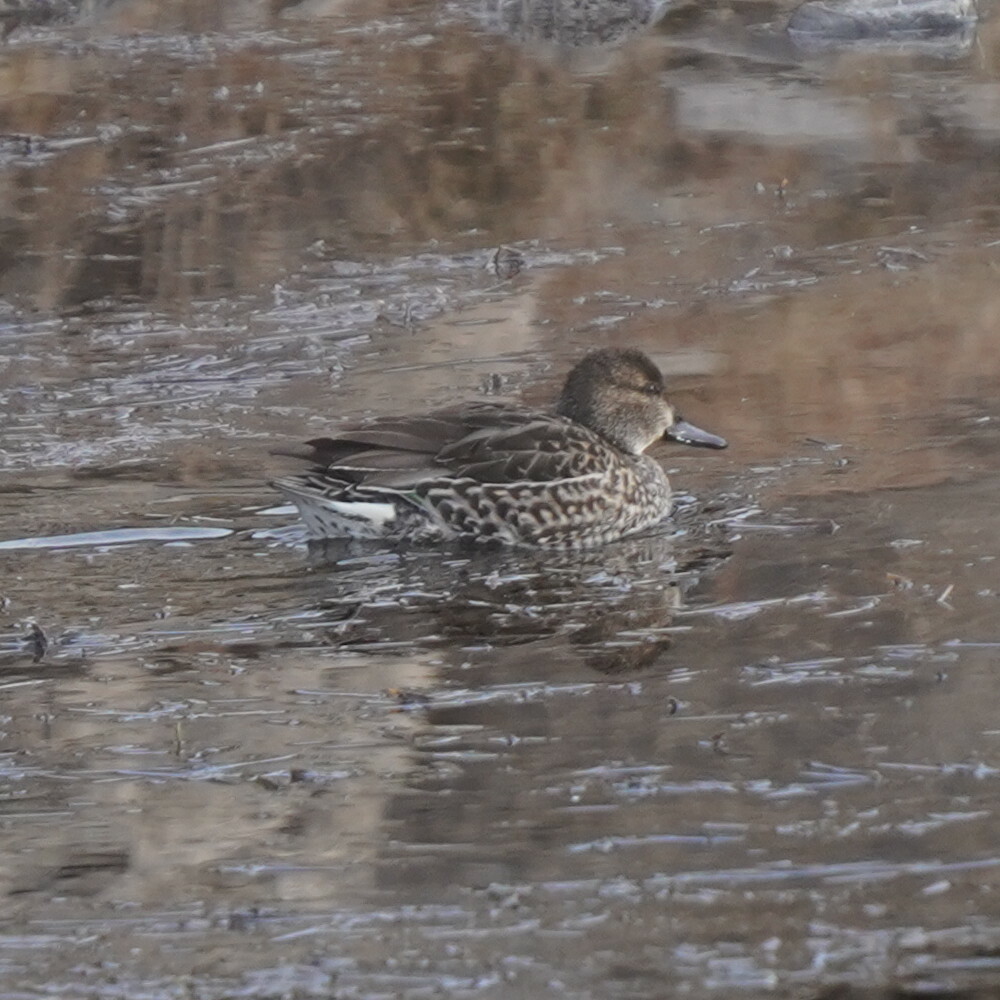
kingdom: Animalia
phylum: Chordata
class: Aves
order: Anseriformes
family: Anatidae
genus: Anas
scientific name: Anas crecca
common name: Eurasian teal
